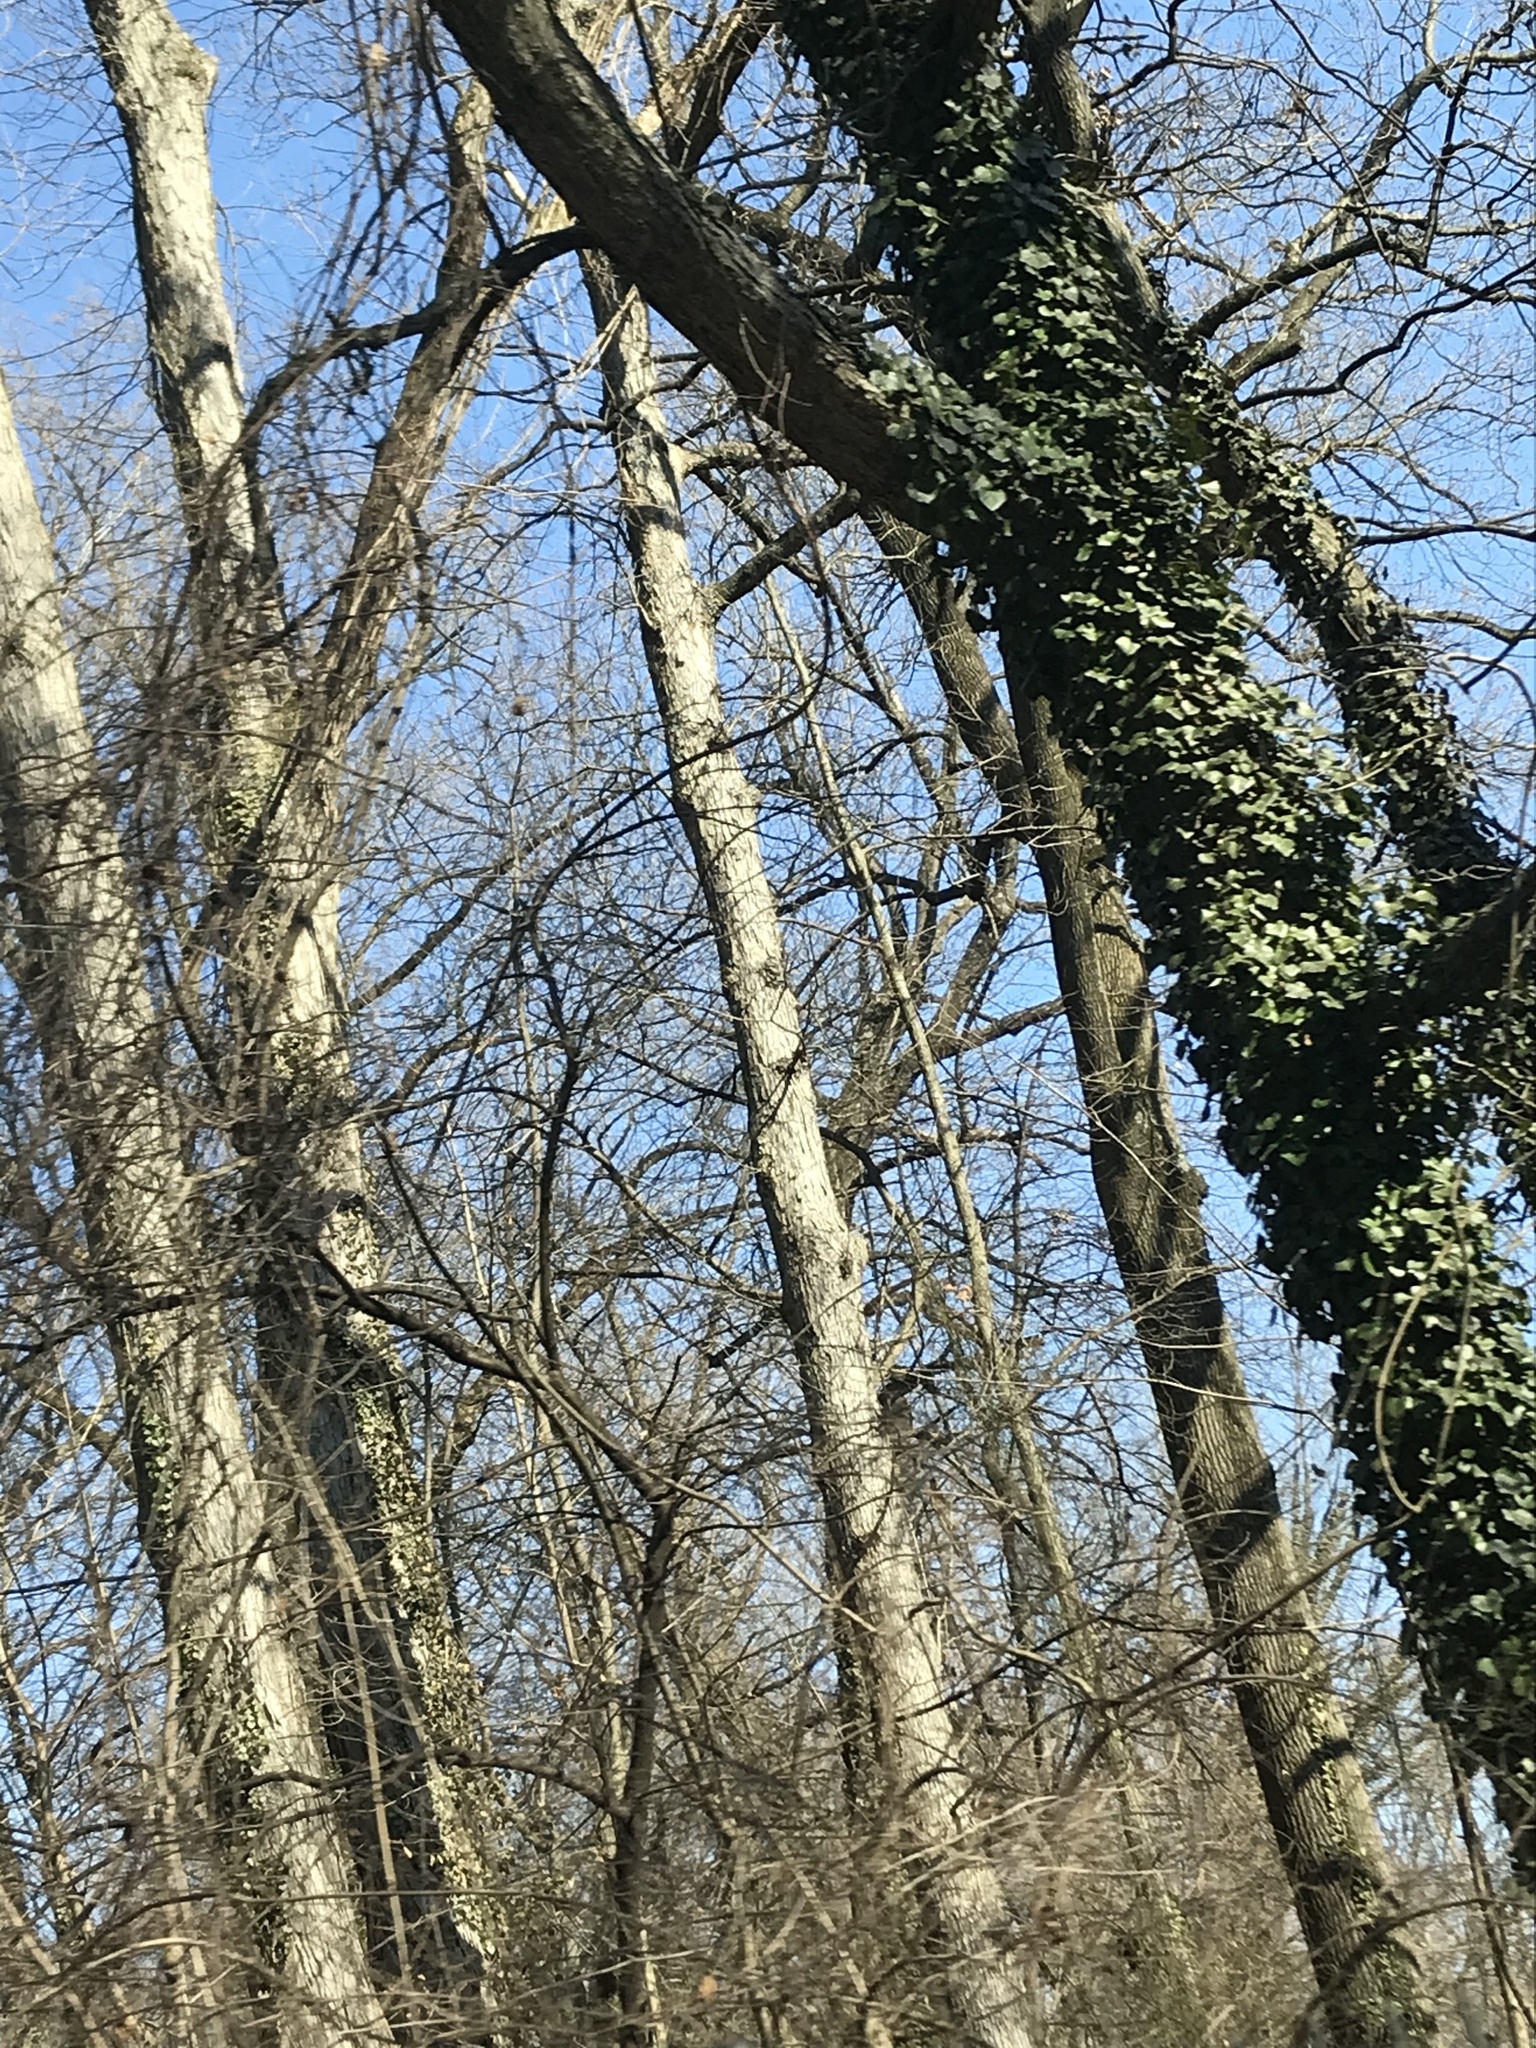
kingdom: Plantae
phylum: Tracheophyta
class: Magnoliopsida
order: Apiales
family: Araliaceae
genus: Hedera
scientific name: Hedera helix
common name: Ivy
